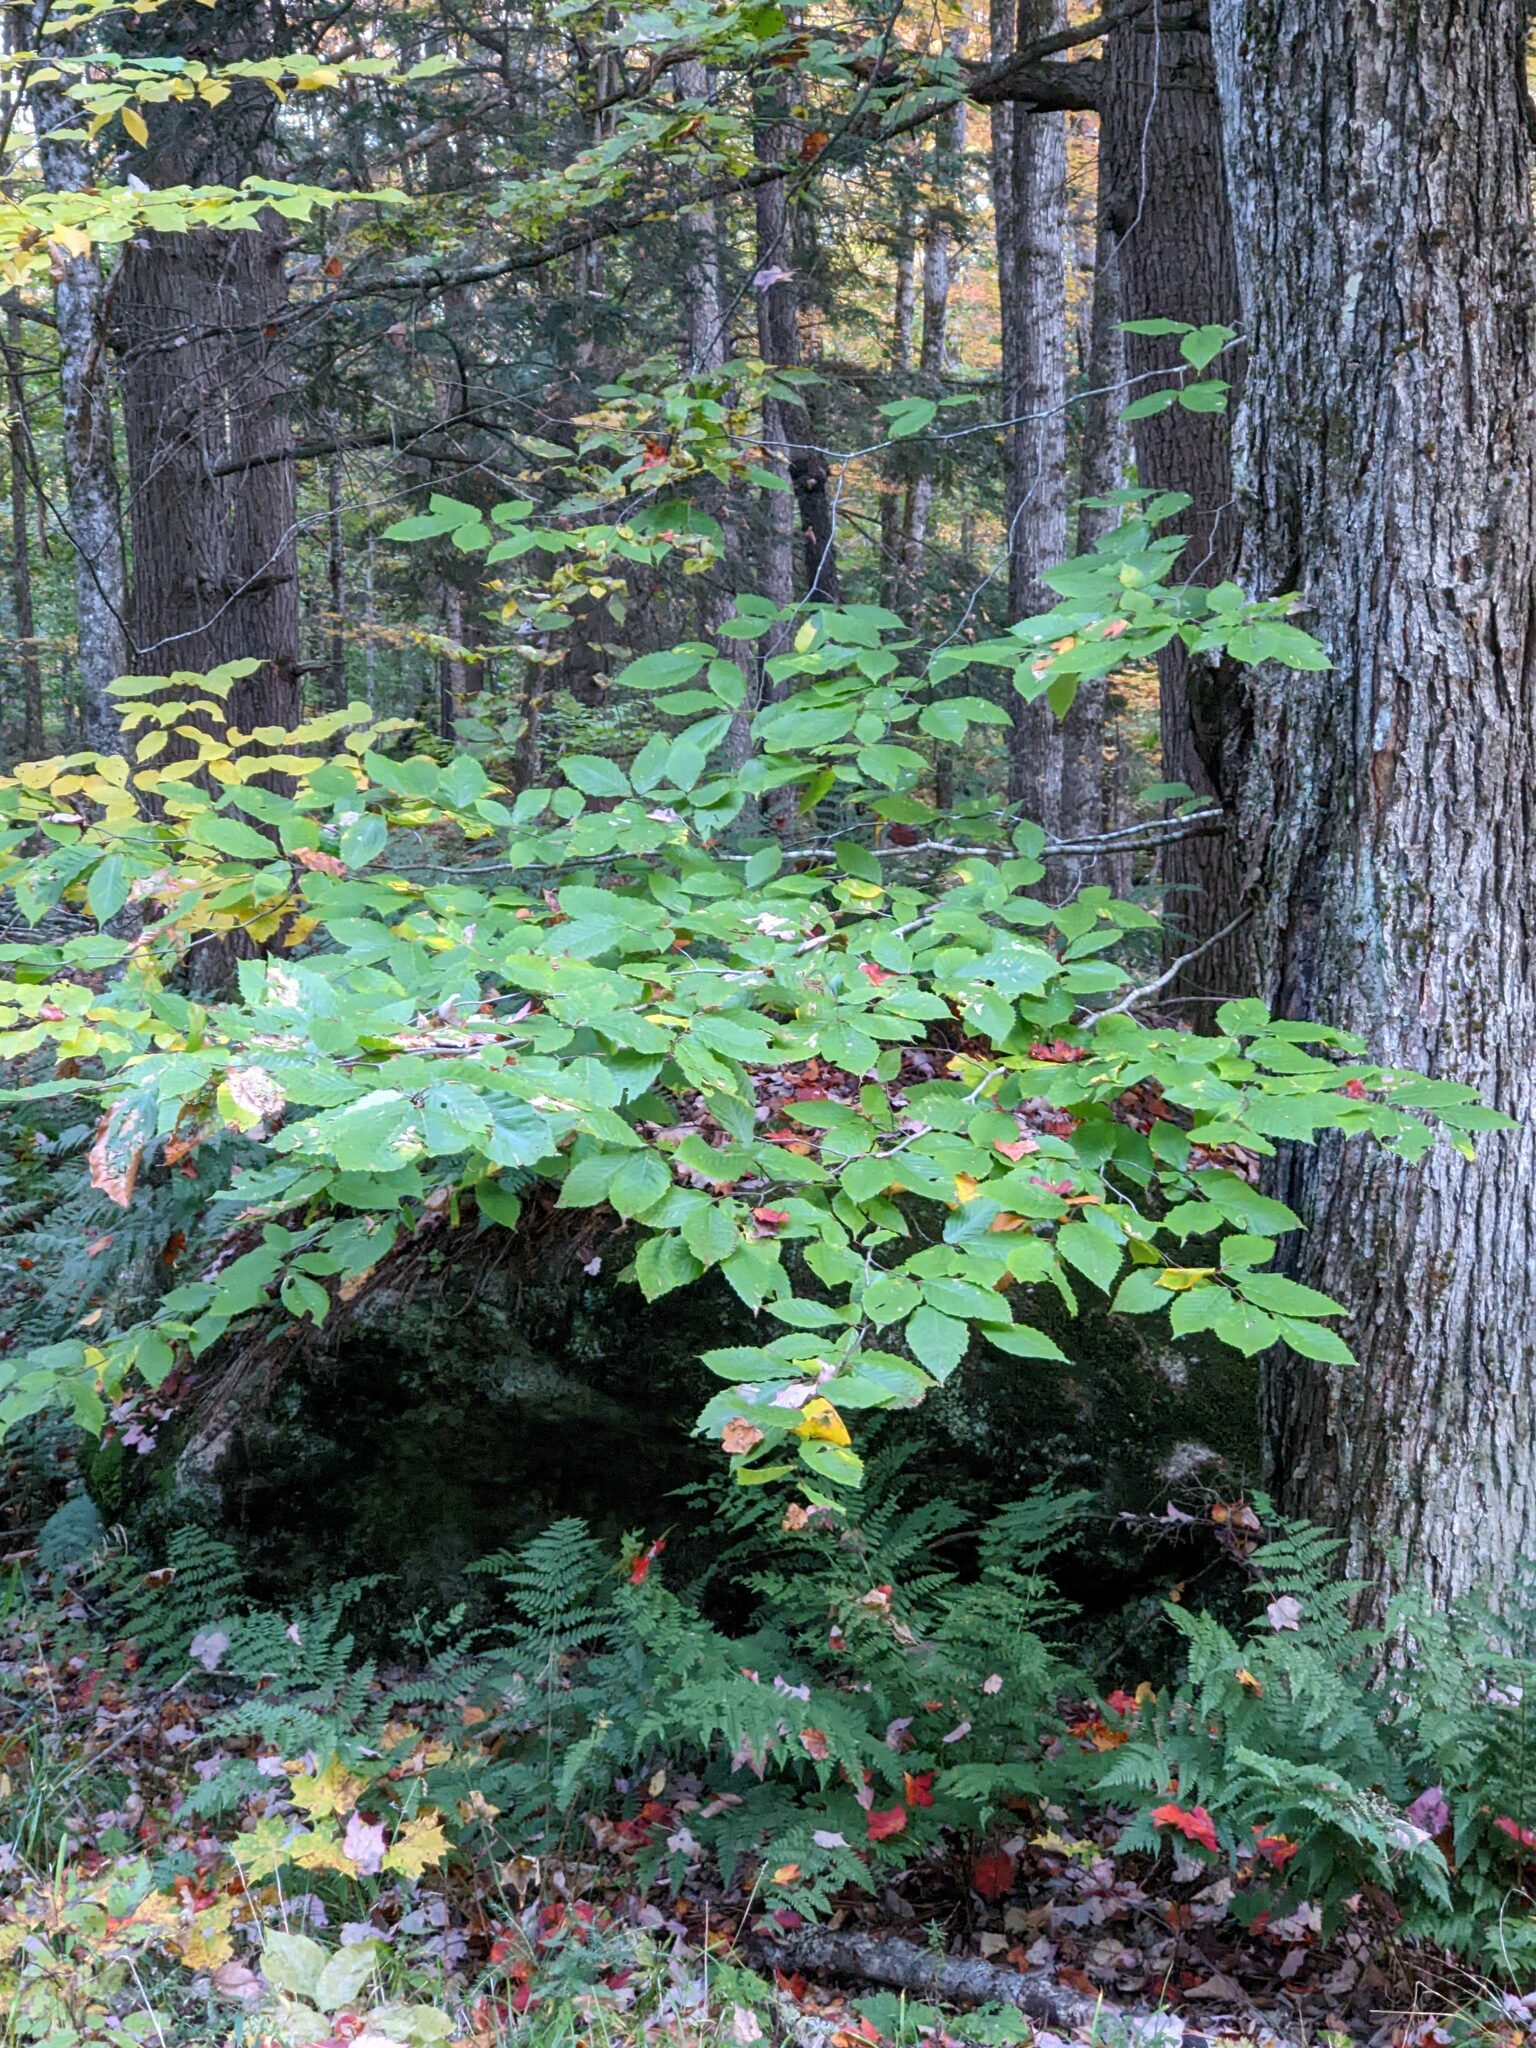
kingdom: Plantae
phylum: Tracheophyta
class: Magnoliopsida
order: Fagales
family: Fagaceae
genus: Fagus
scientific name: Fagus grandifolia
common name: American beech
